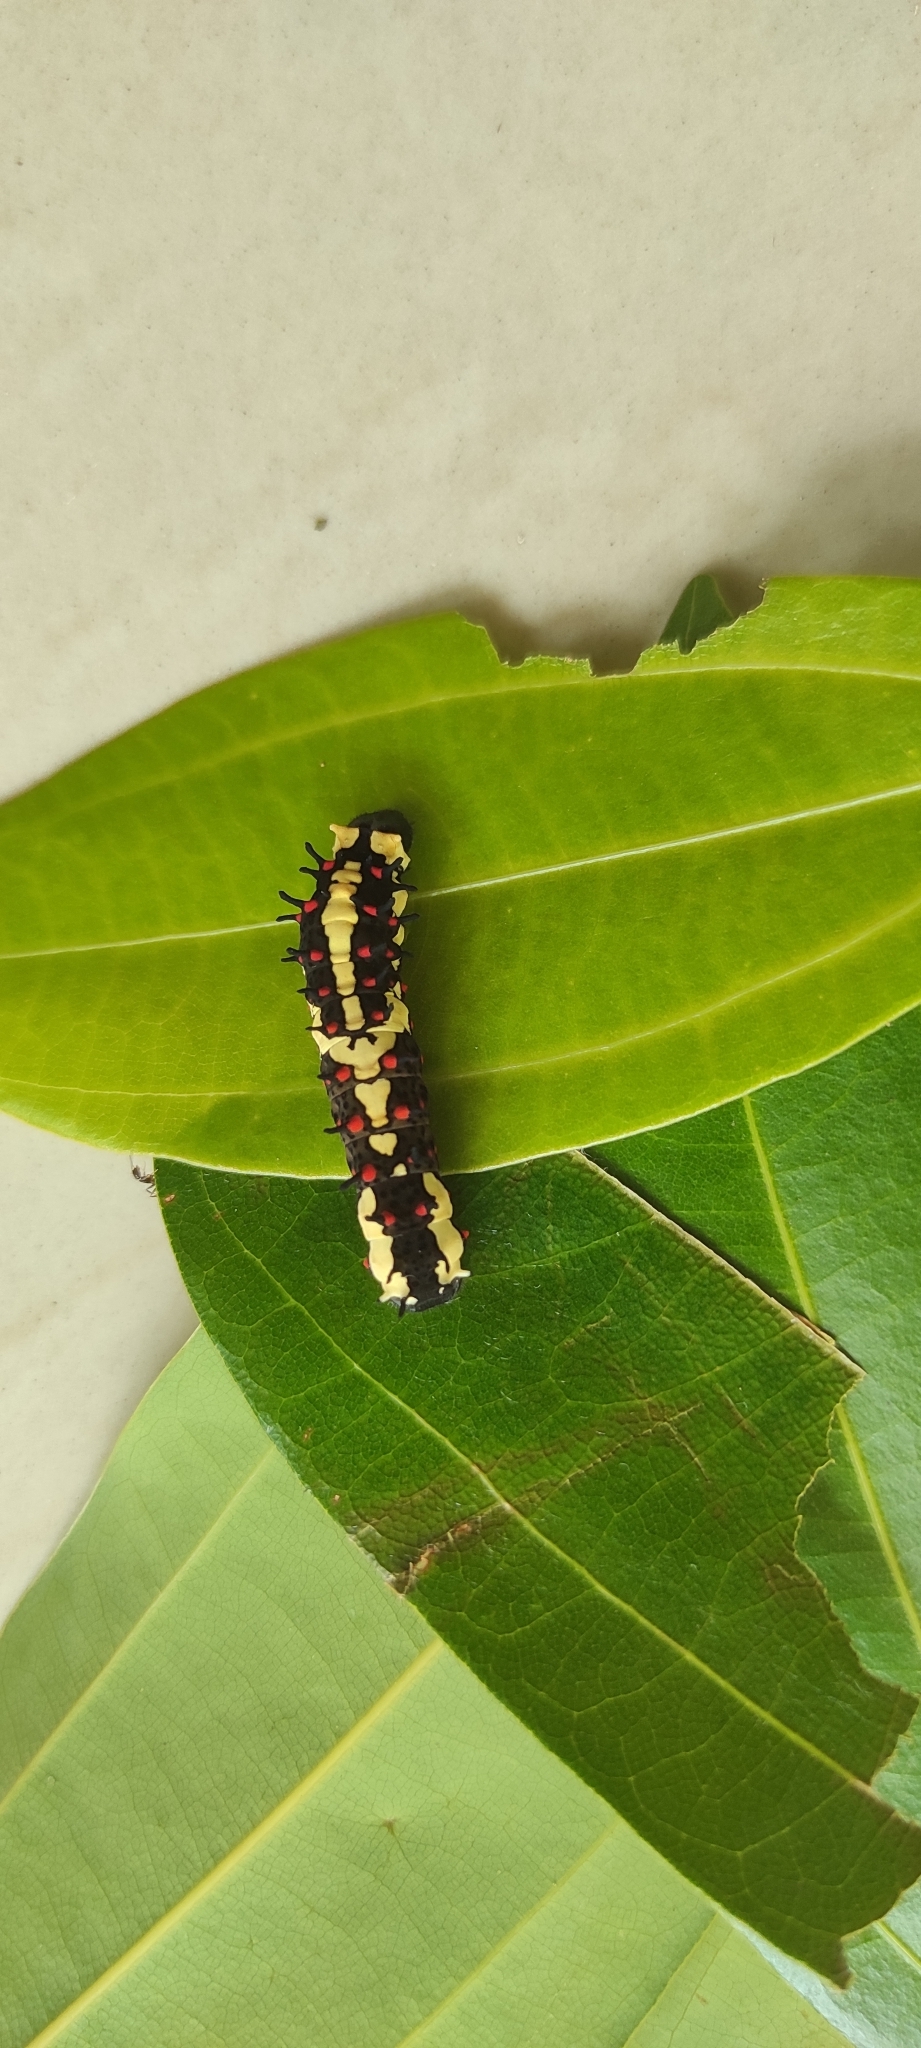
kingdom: Animalia
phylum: Arthropoda
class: Insecta
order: Lepidoptera
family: Papilionidae
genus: Chilasa
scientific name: Chilasa clytia
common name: Common mime
